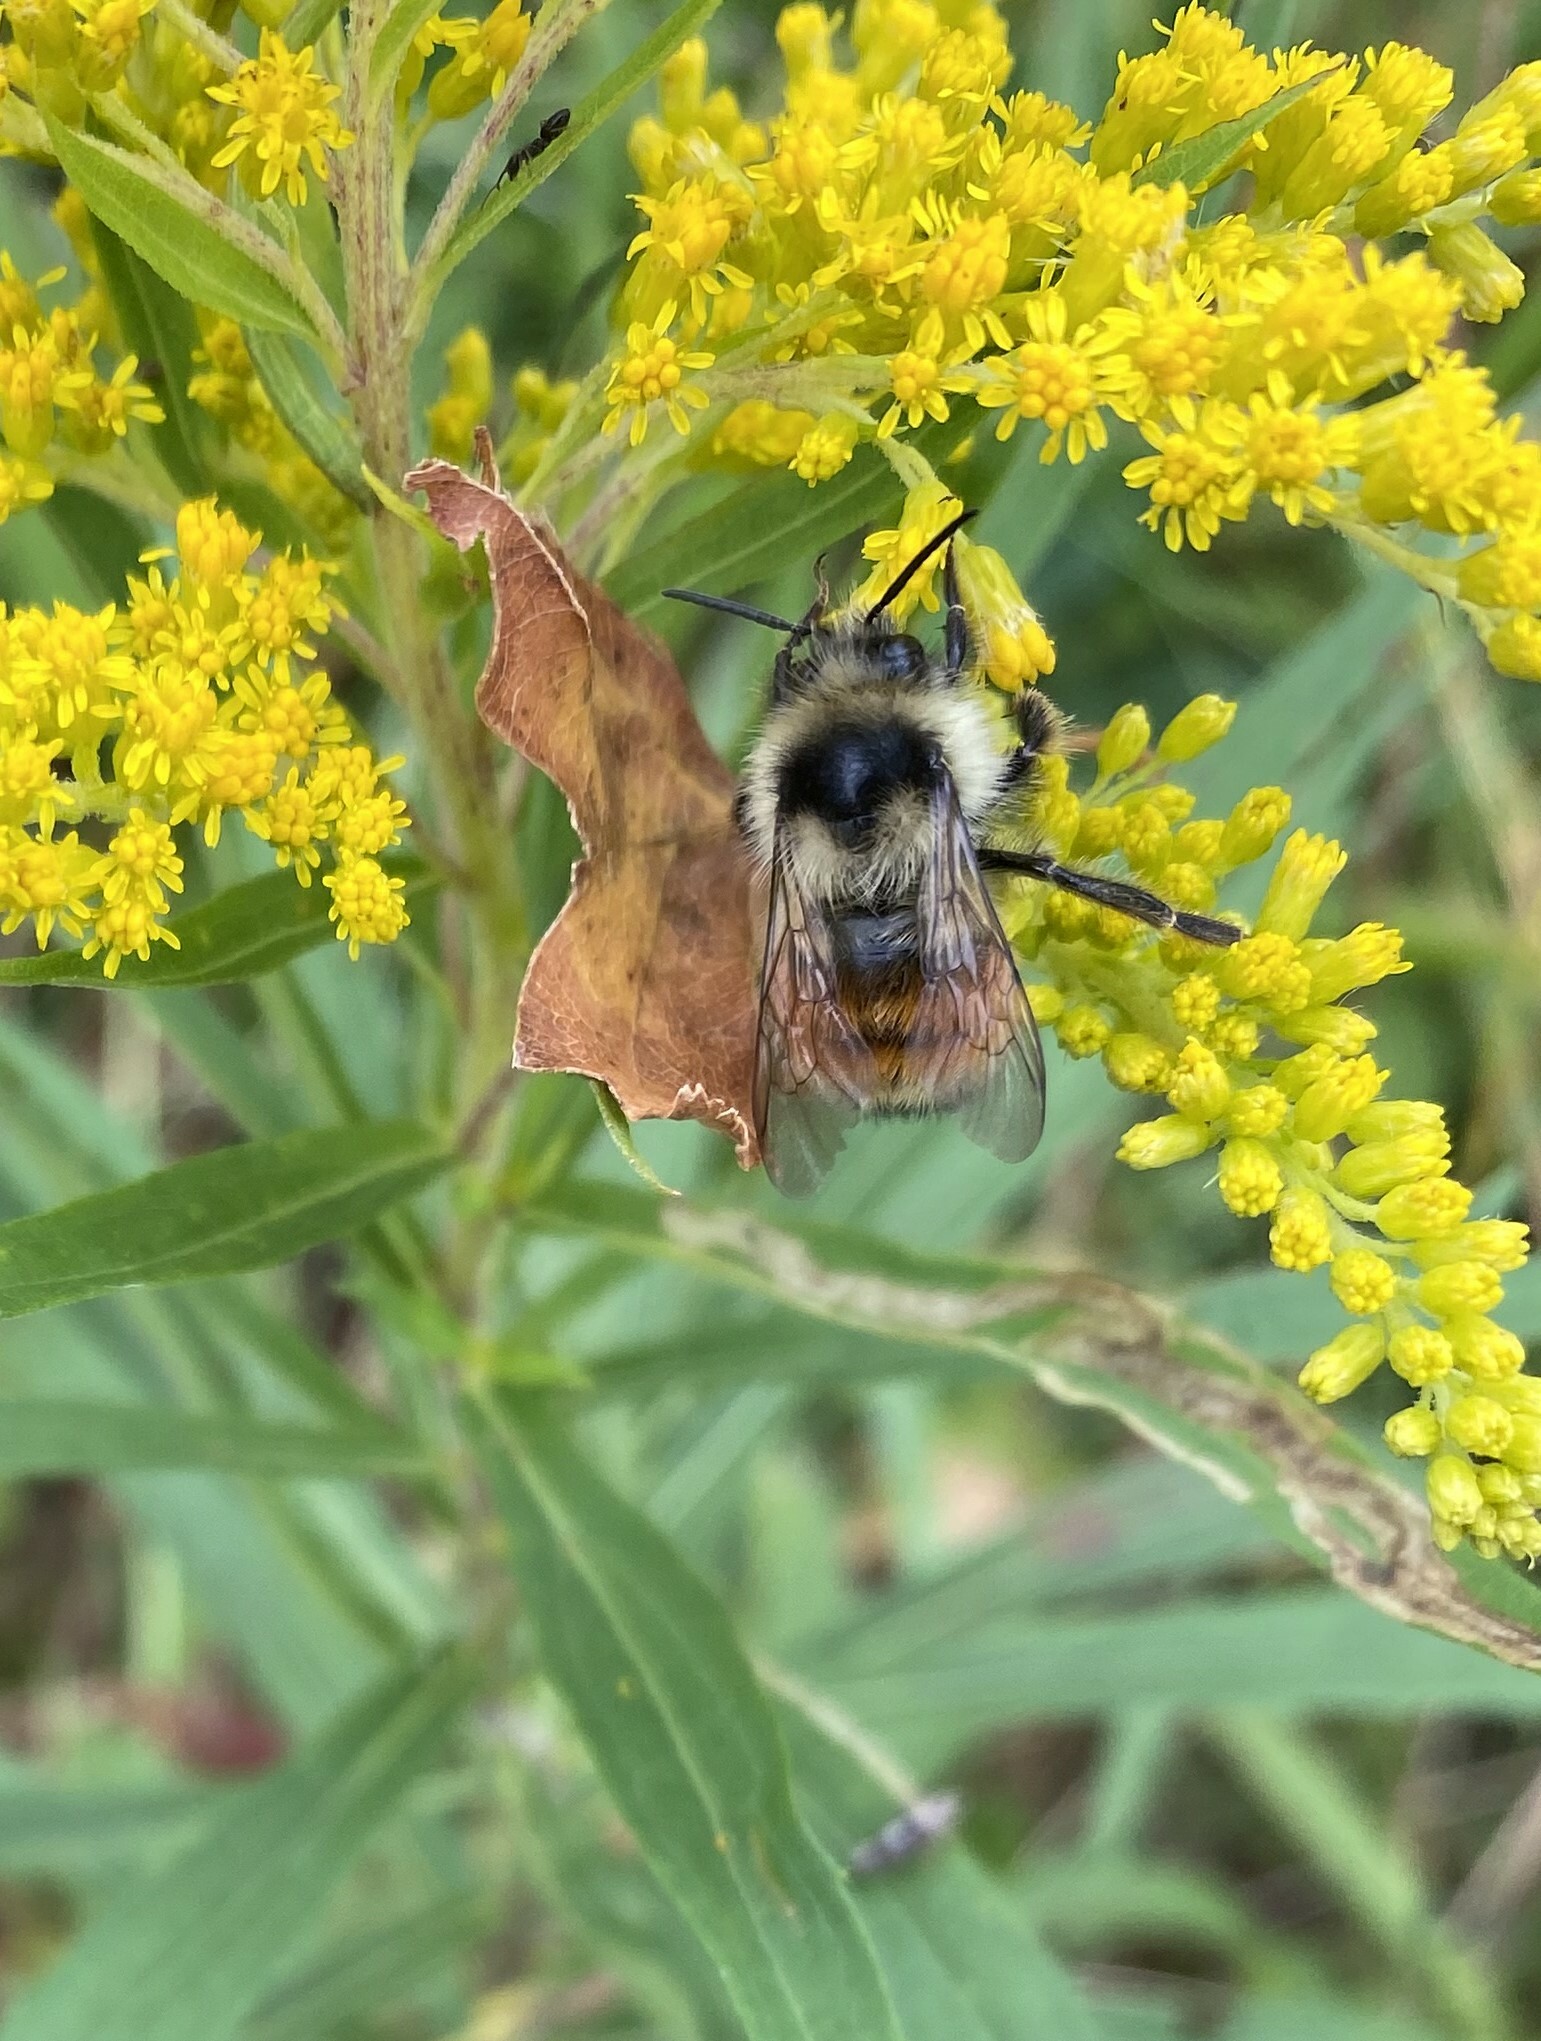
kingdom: Animalia
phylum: Arthropoda
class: Insecta
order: Hymenoptera
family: Apidae
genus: Bombus
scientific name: Bombus ternarius
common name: Tri-colored bumble bee
